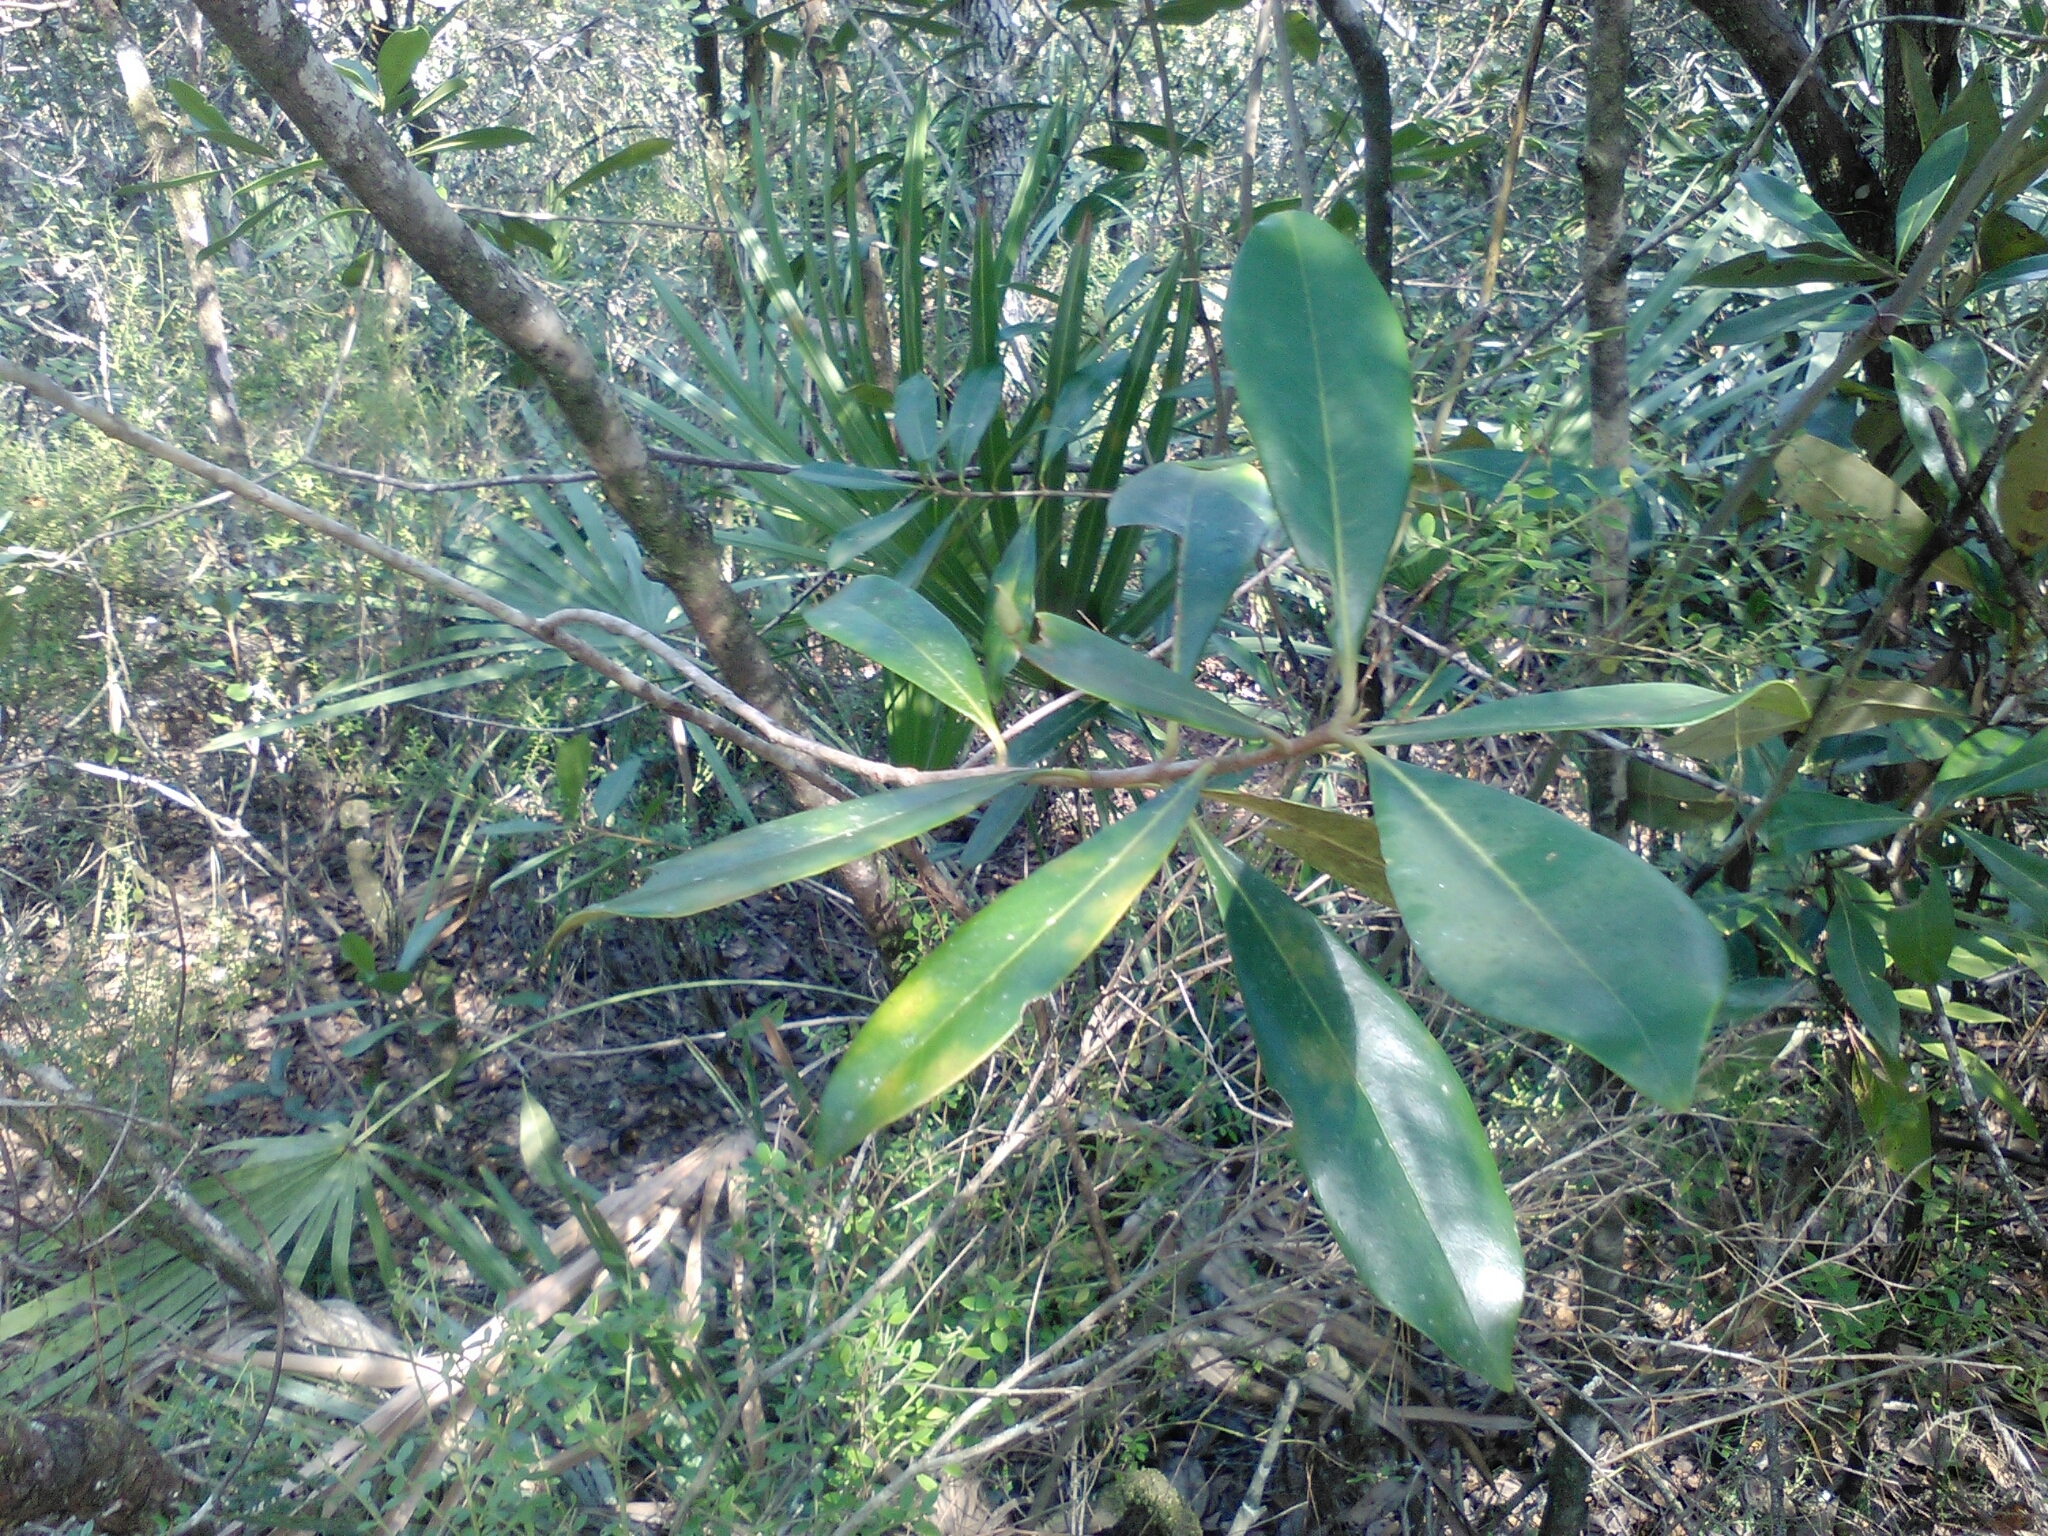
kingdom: Plantae
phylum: Tracheophyta
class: Magnoliopsida
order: Lamiales
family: Oleaceae
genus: Cartrema
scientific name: Cartrema floridana
